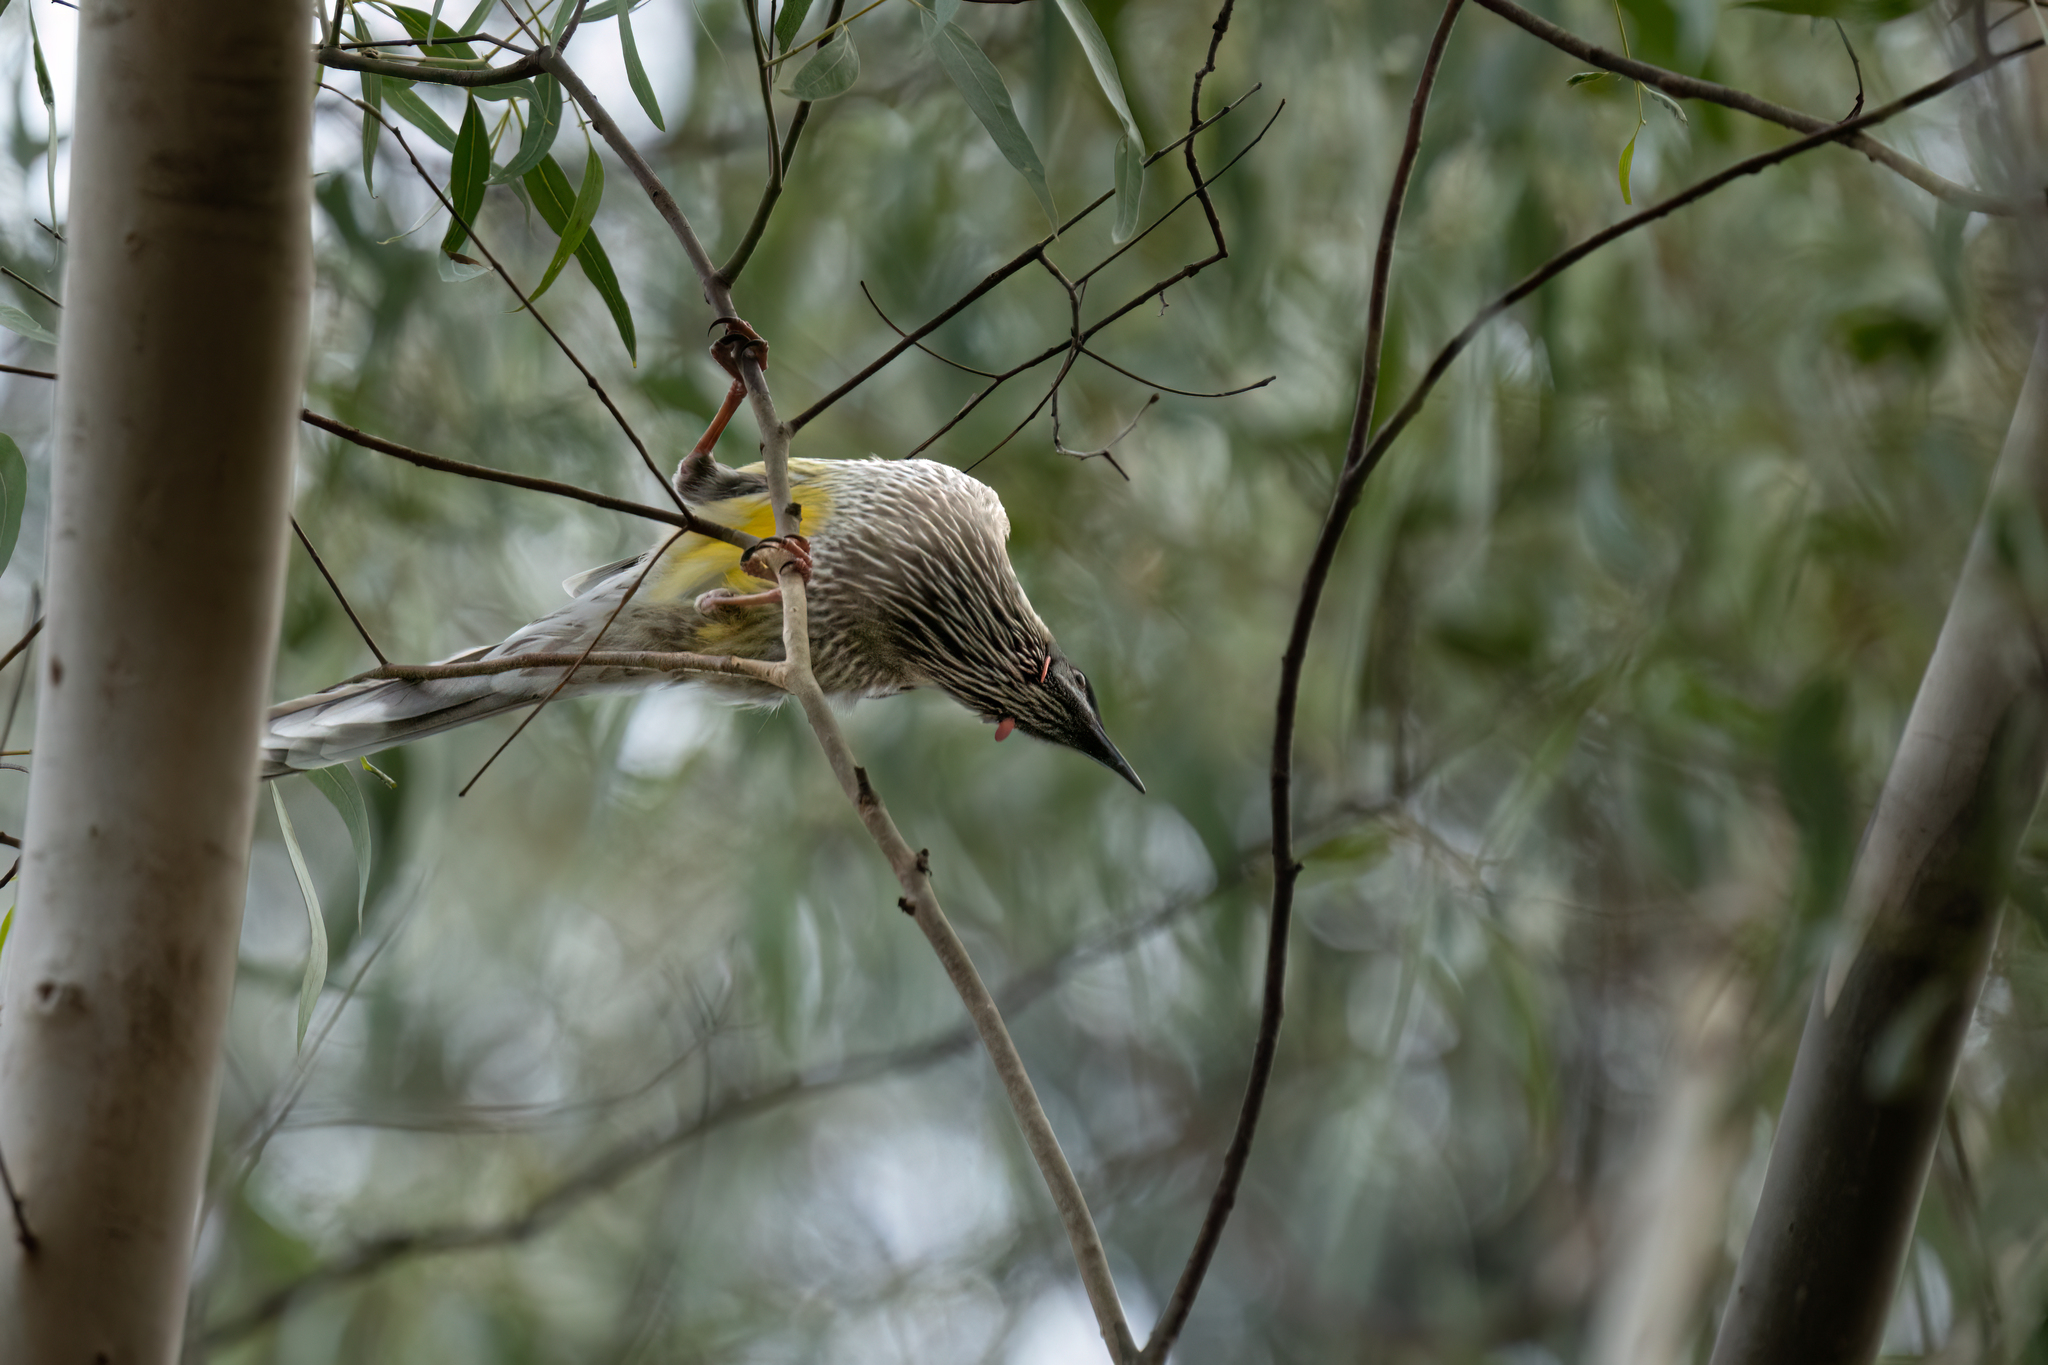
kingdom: Animalia
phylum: Chordata
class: Aves
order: Passeriformes
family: Meliphagidae
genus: Anthochaera
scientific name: Anthochaera carunculata
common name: Red wattlebird
